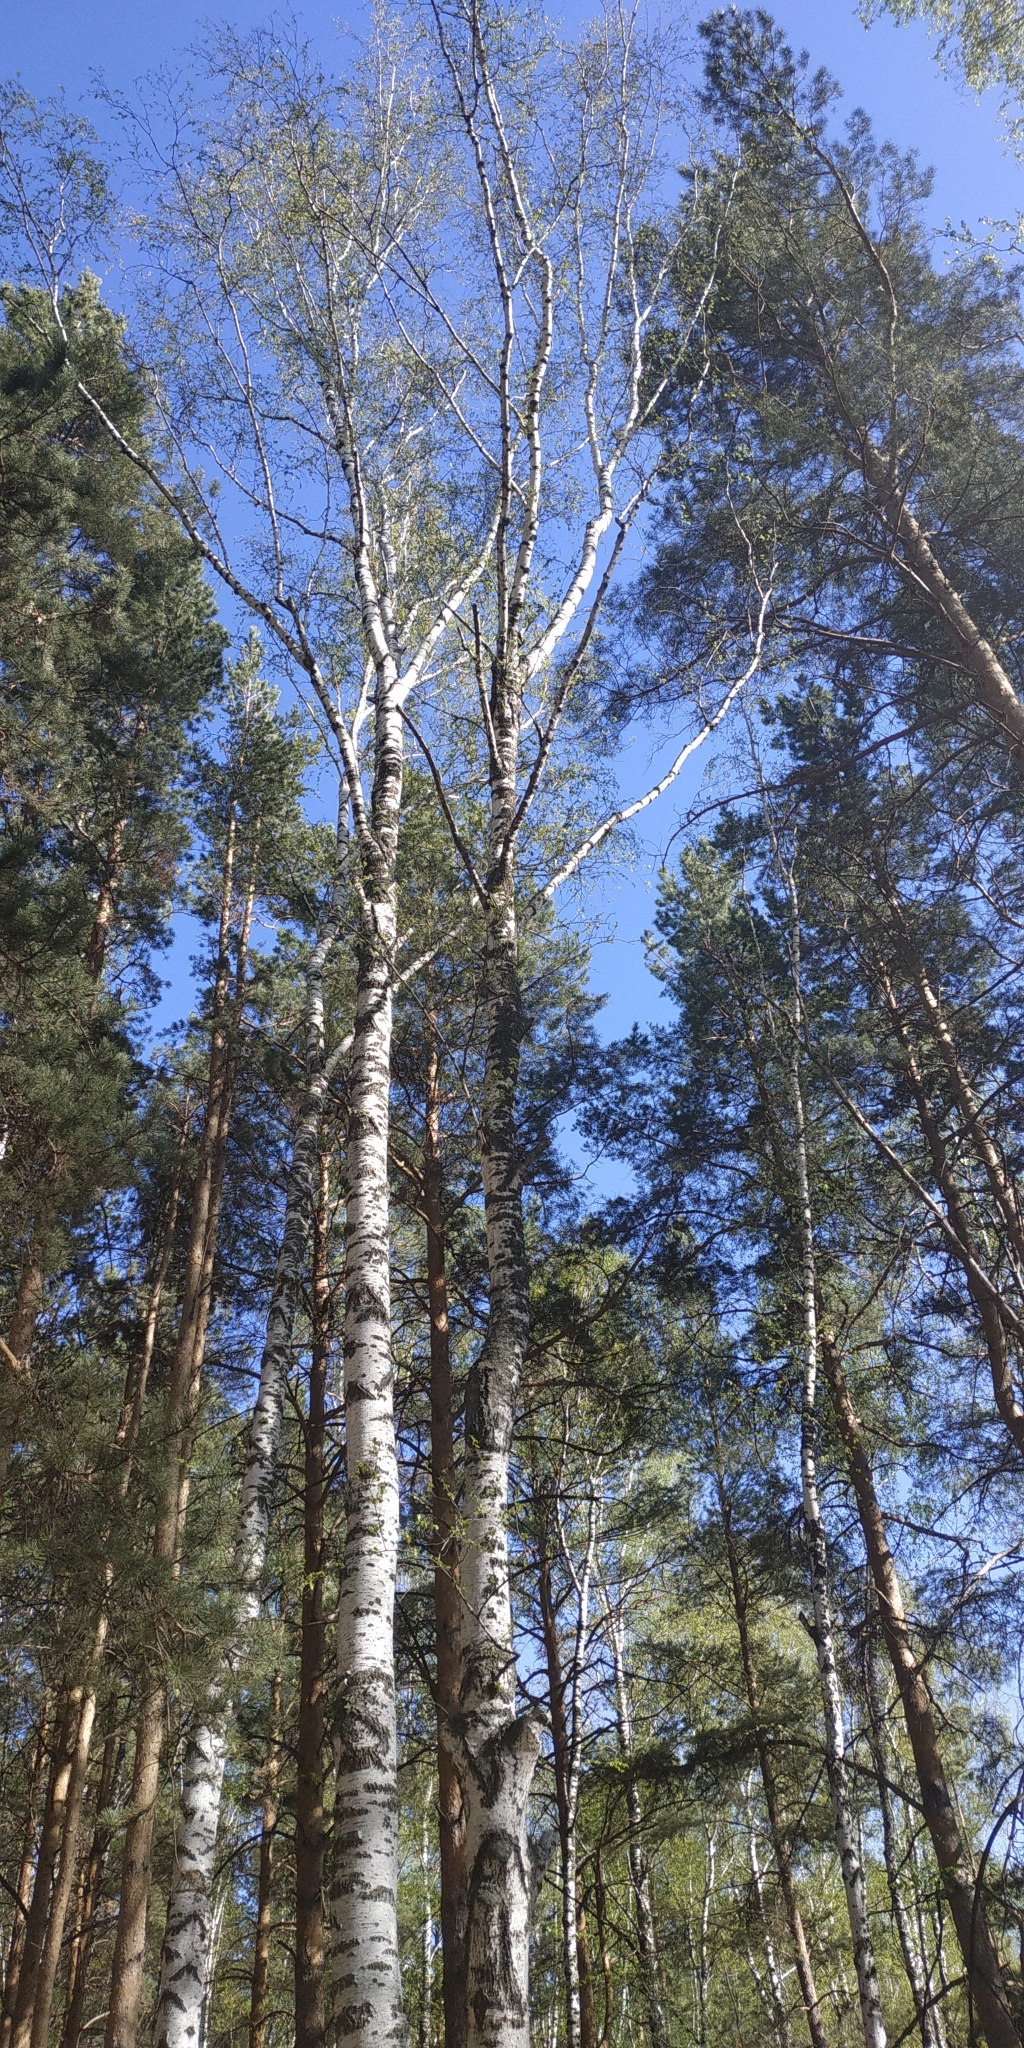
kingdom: Plantae
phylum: Tracheophyta
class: Magnoliopsida
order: Fagales
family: Betulaceae
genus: Betula
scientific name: Betula pendula
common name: Silver birch
